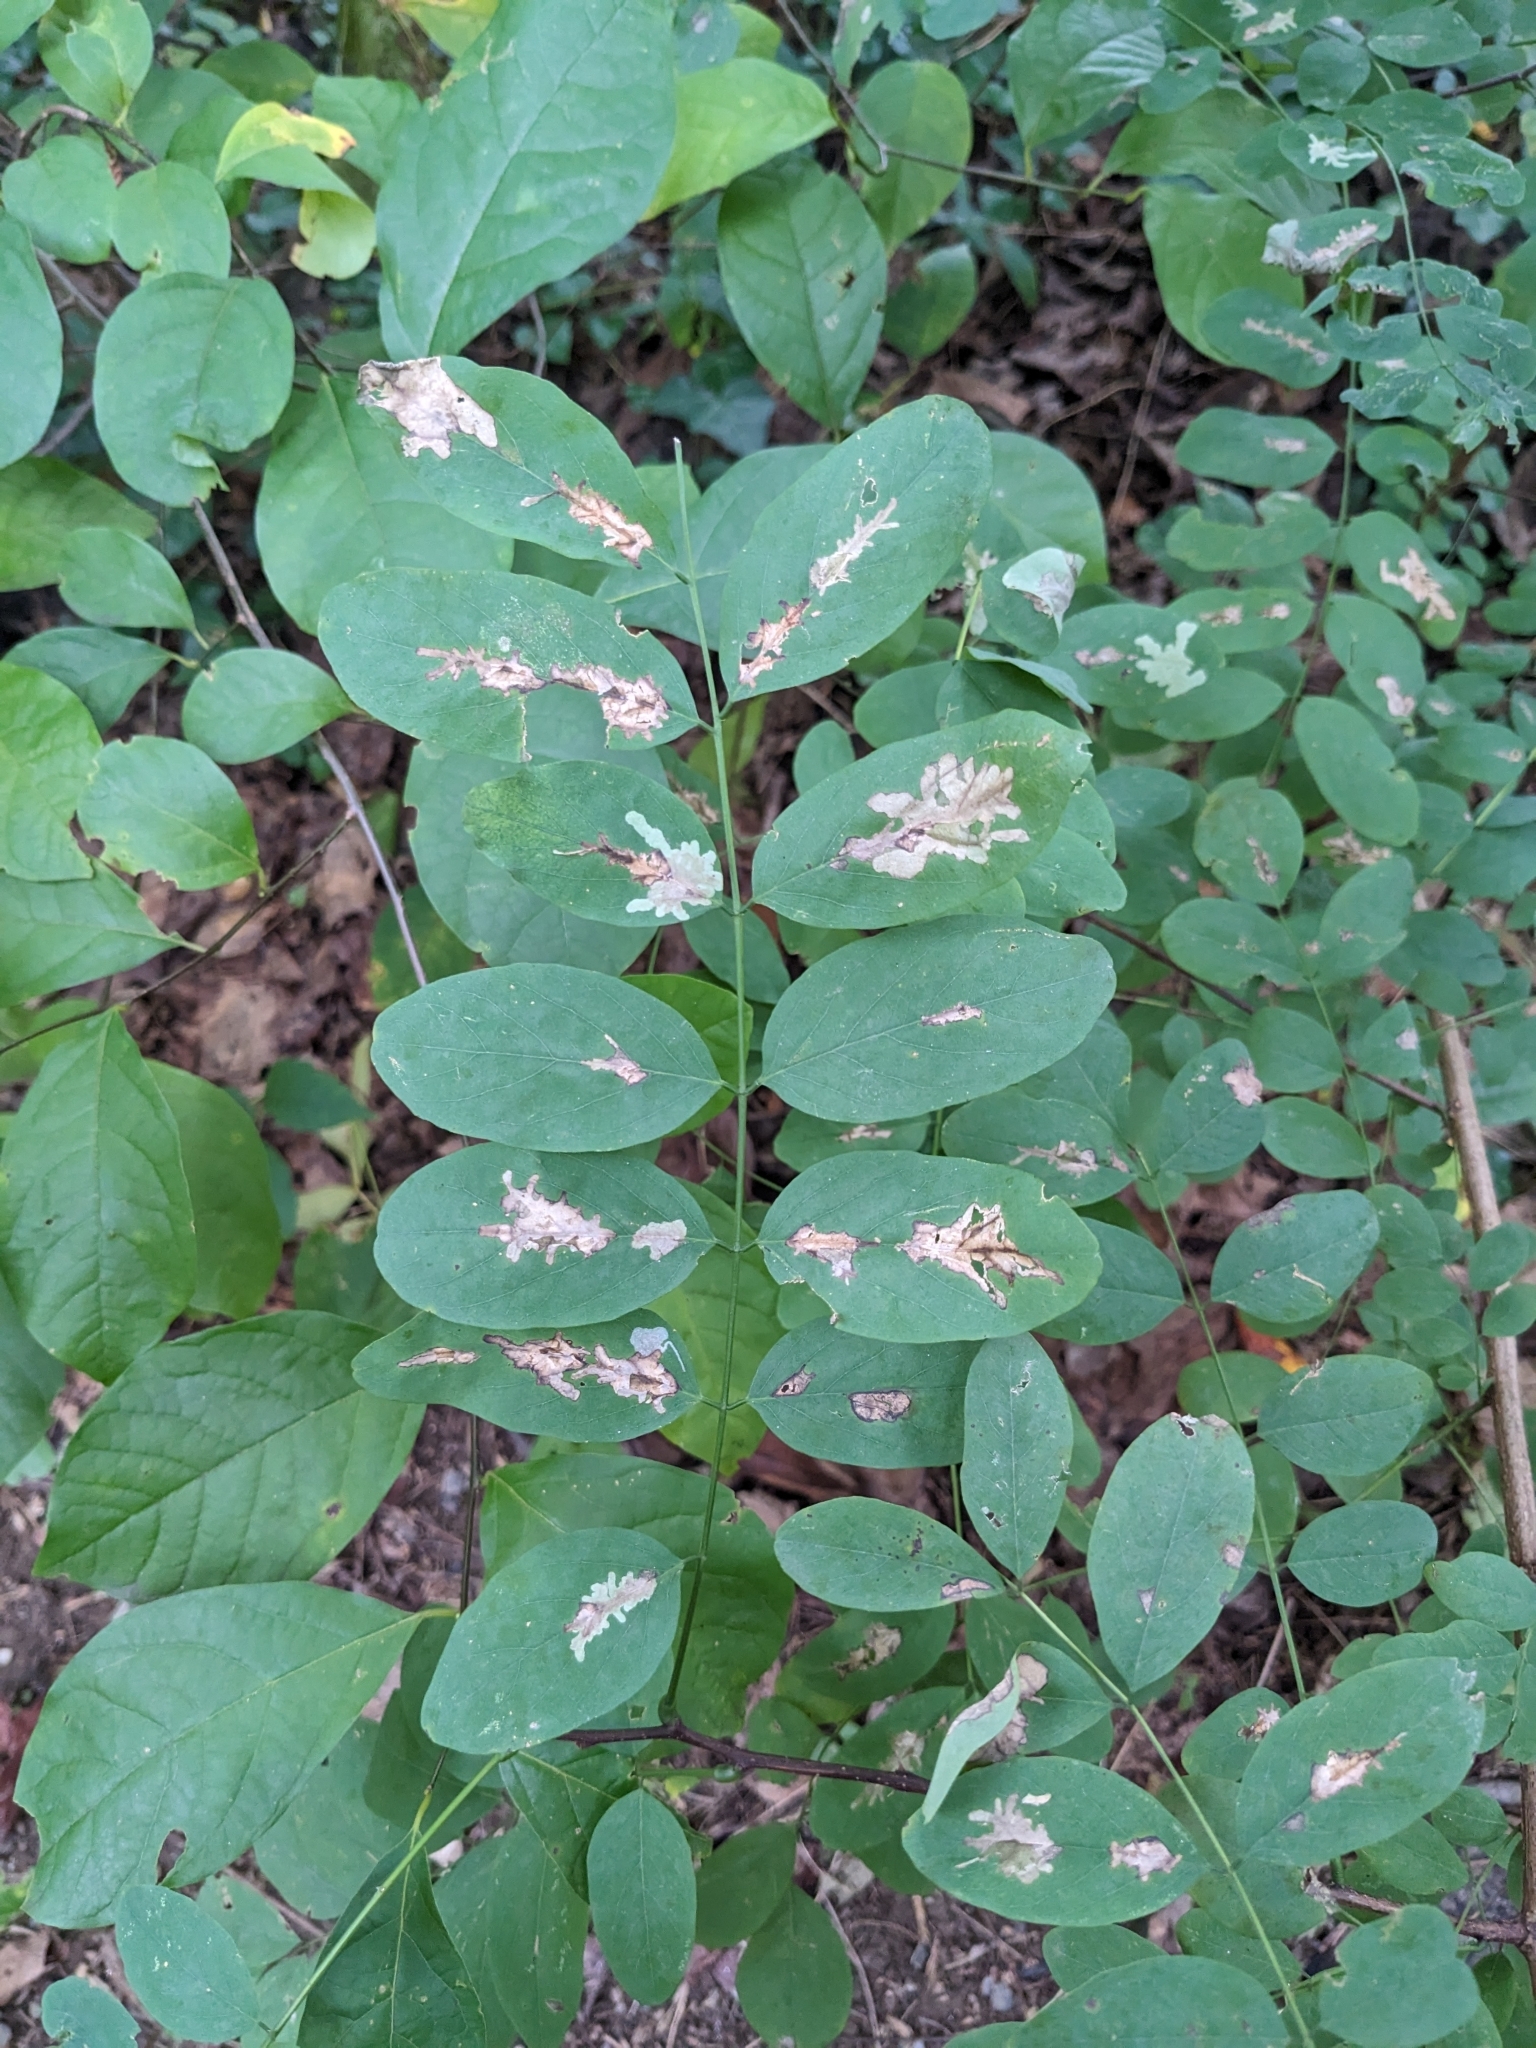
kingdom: Animalia
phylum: Arthropoda
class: Insecta
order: Lepidoptera
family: Gracillariidae
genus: Parectopa
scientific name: Parectopa robiniella
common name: Locust digitate leafminer
